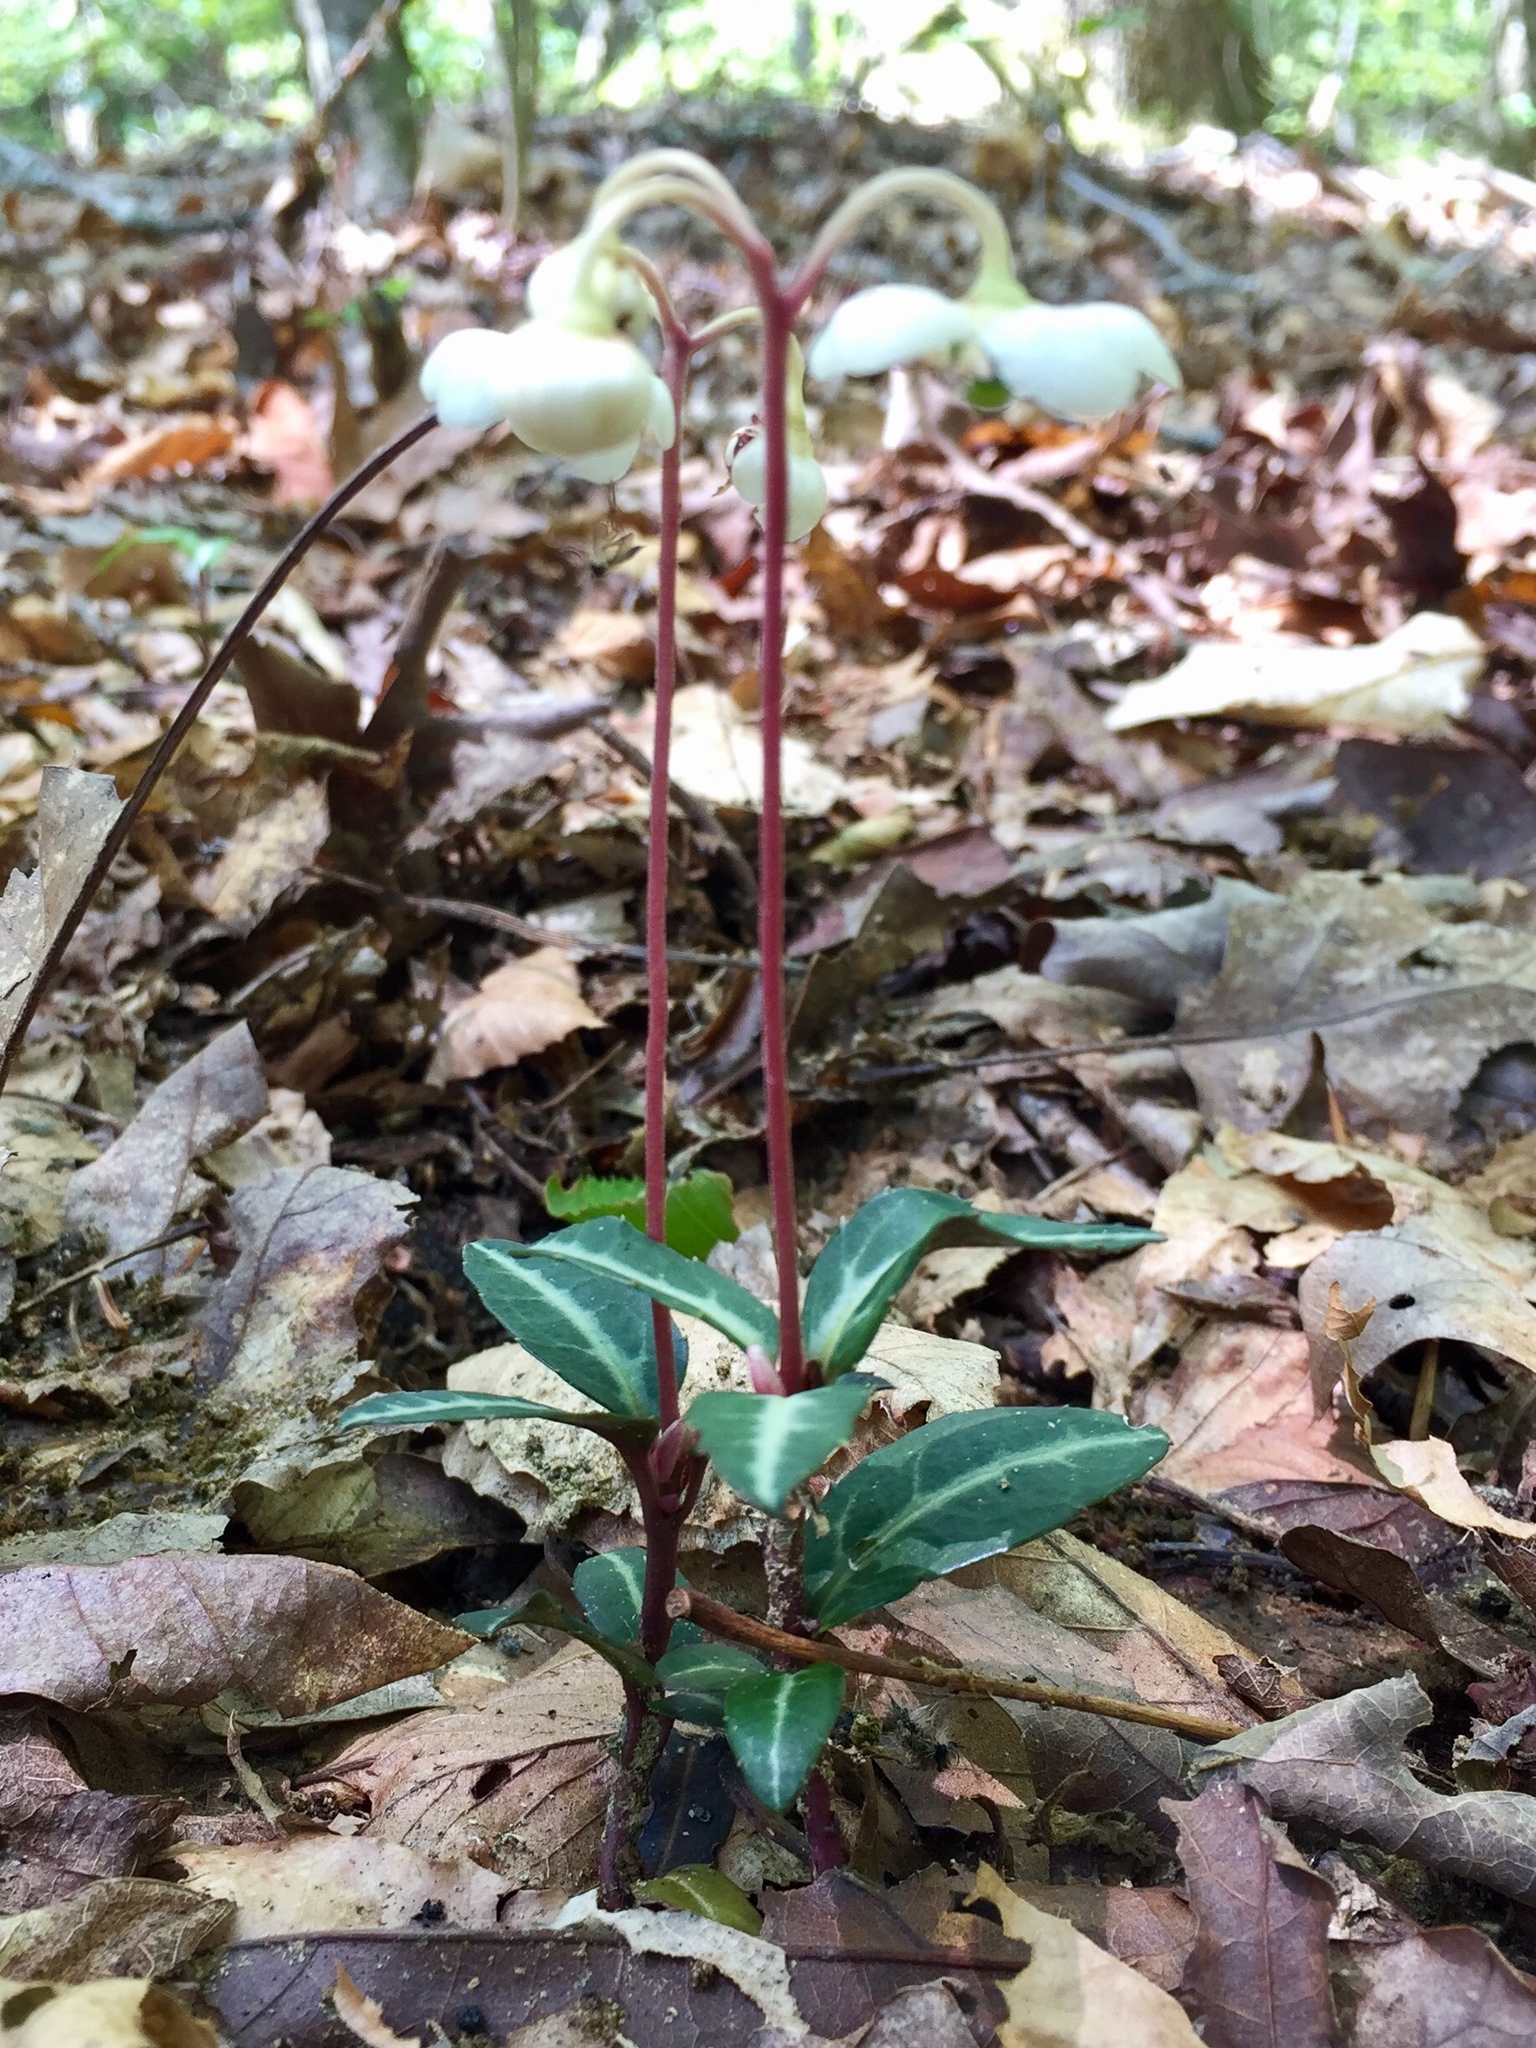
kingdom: Plantae
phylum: Tracheophyta
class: Magnoliopsida
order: Ericales
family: Ericaceae
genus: Chimaphila
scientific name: Chimaphila maculata
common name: Spotted pipsissewa
